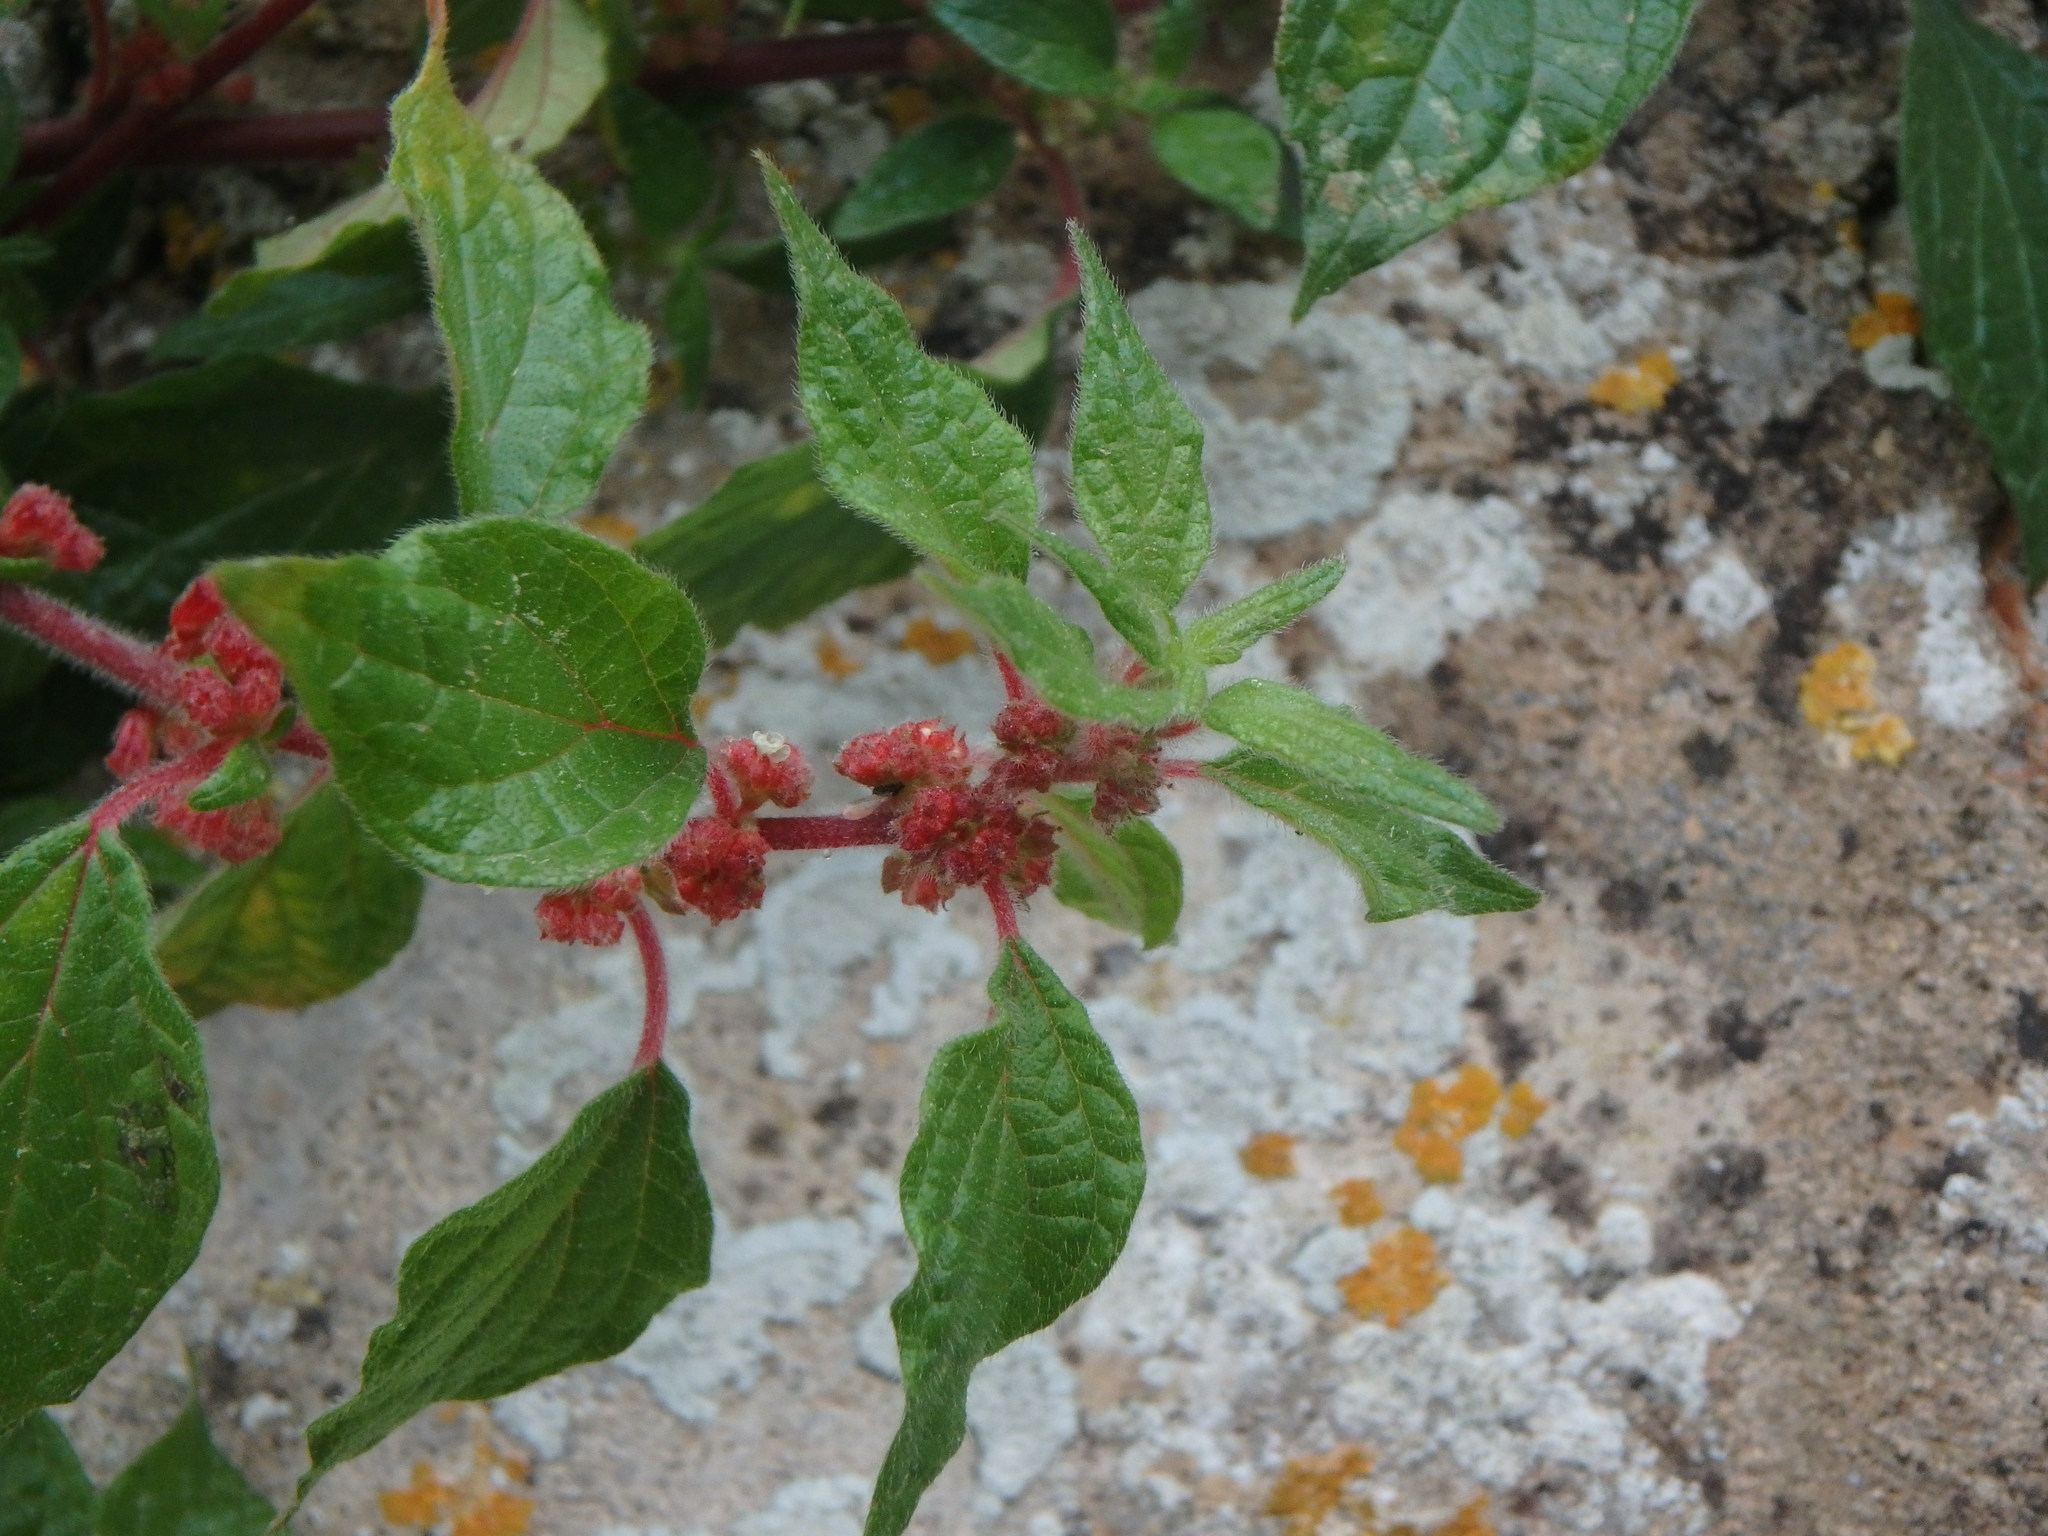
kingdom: Plantae
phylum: Tracheophyta
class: Magnoliopsida
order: Rosales
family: Urticaceae
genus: Parietaria
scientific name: Parietaria judaica
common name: Pellitory-of-the-wall
